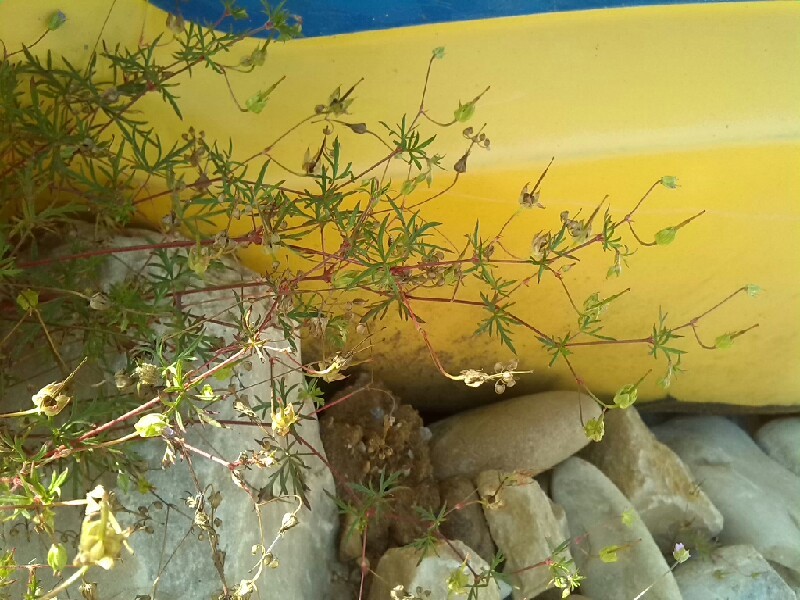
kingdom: Plantae
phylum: Tracheophyta
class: Magnoliopsida
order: Geraniales
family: Geraniaceae
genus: Geranium
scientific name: Geranium columbinum
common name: Long-stalked crane's-bill
